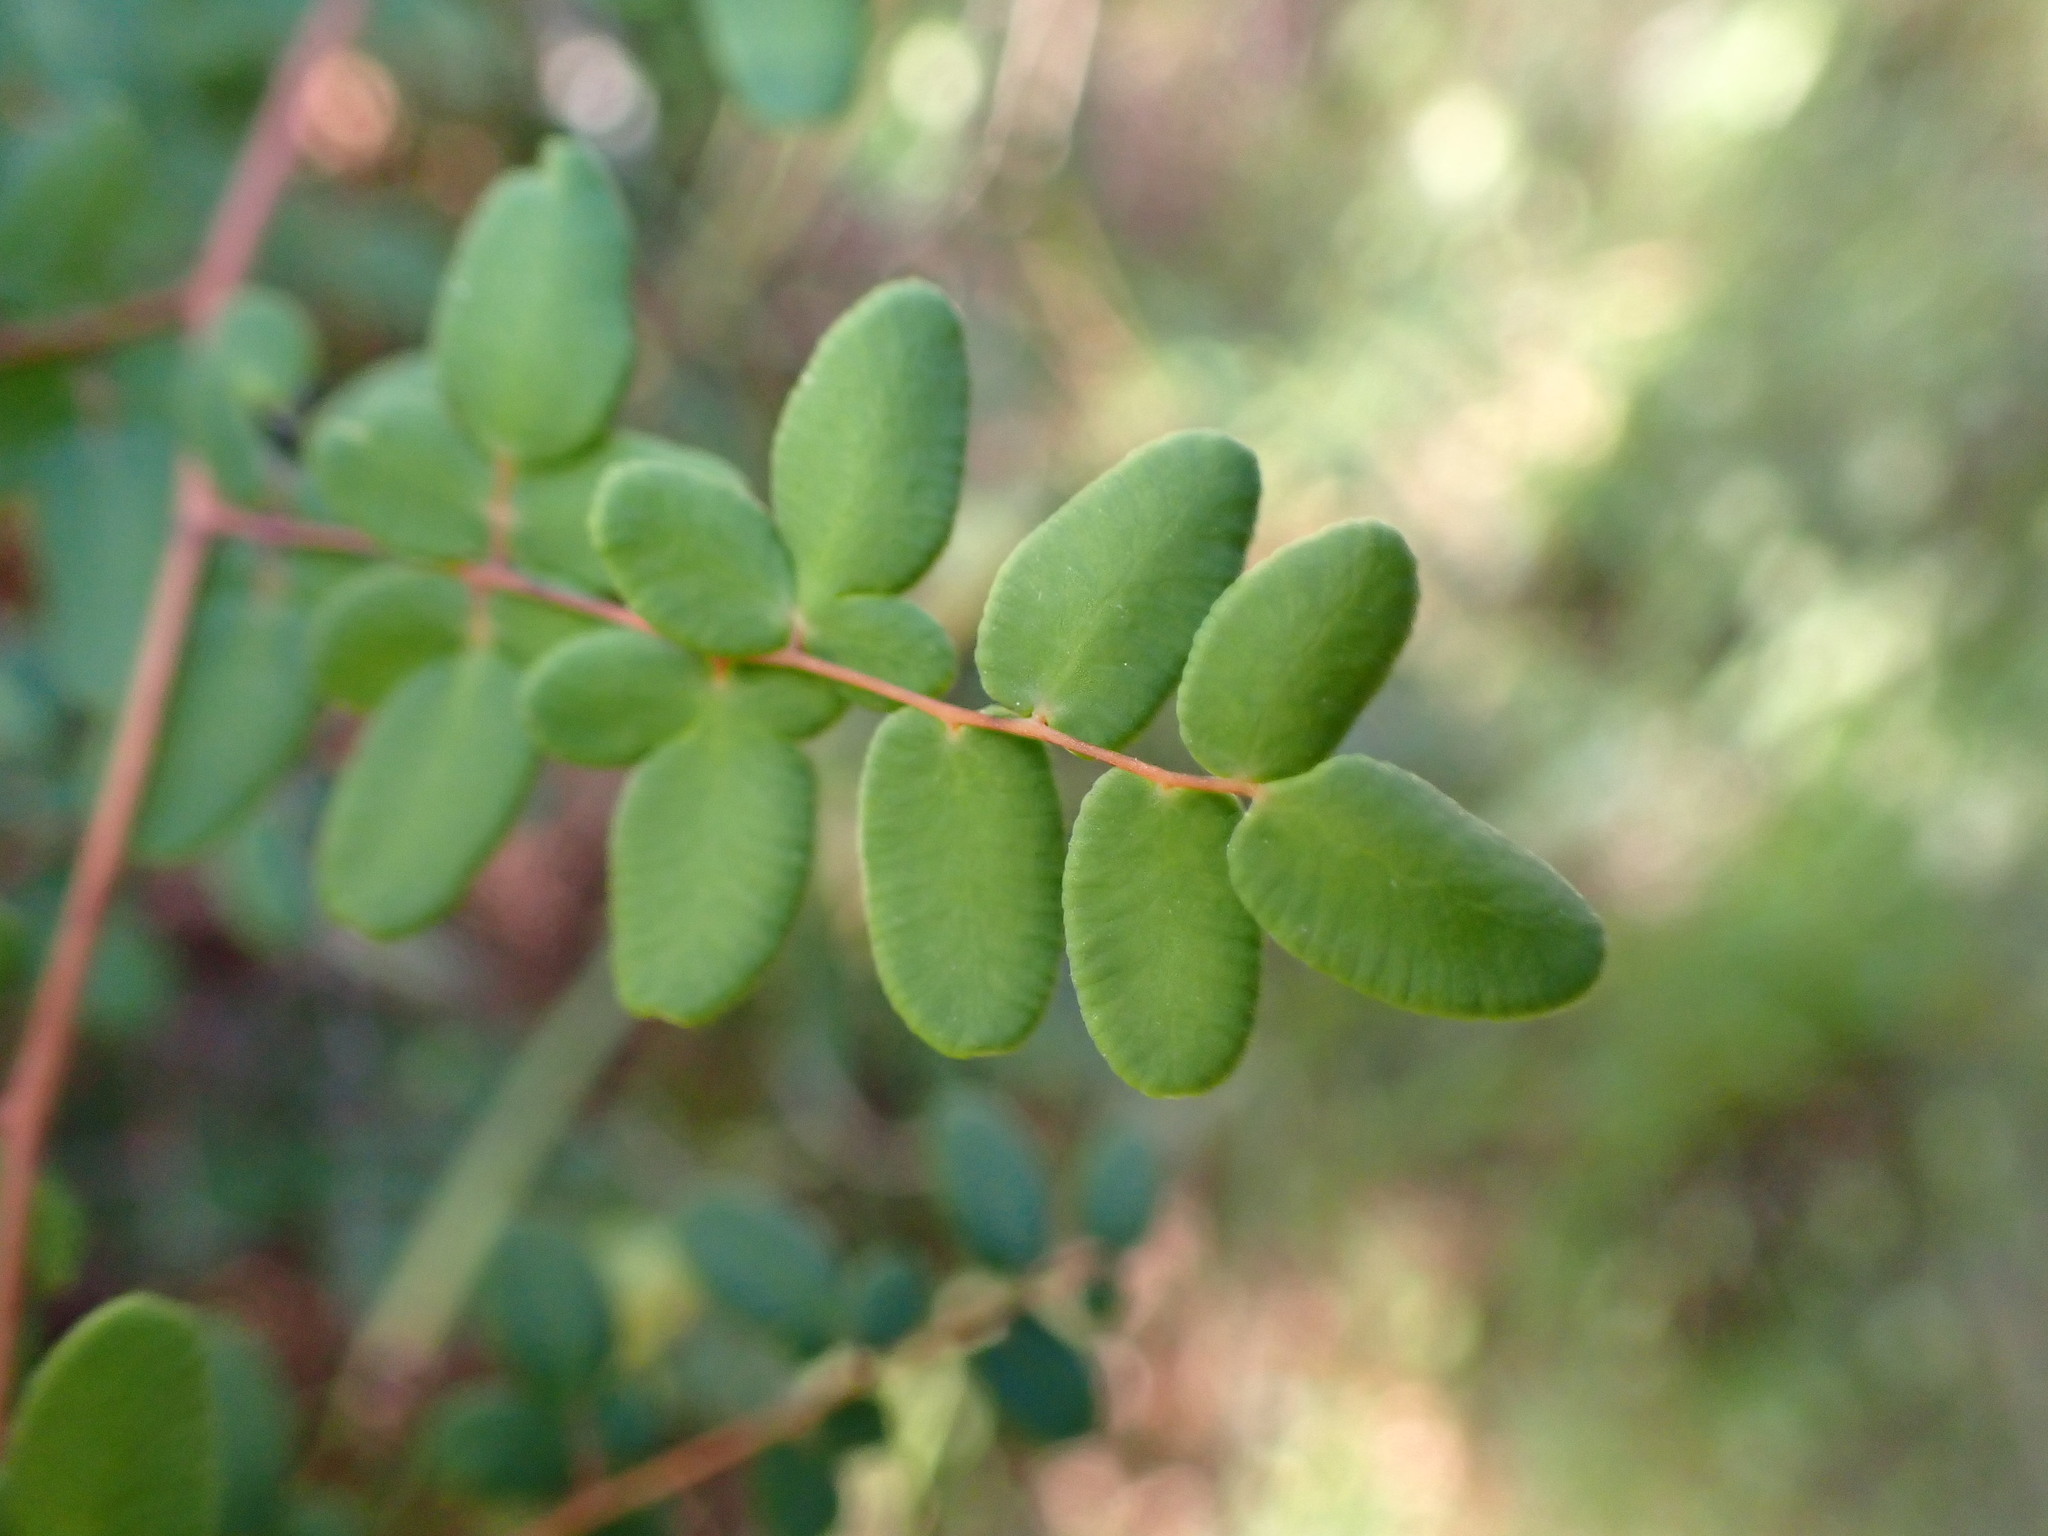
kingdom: Plantae
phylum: Tracheophyta
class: Polypodiopsida
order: Polypodiales
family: Pteridaceae
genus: Pellaea
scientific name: Pellaea andromedifolia
